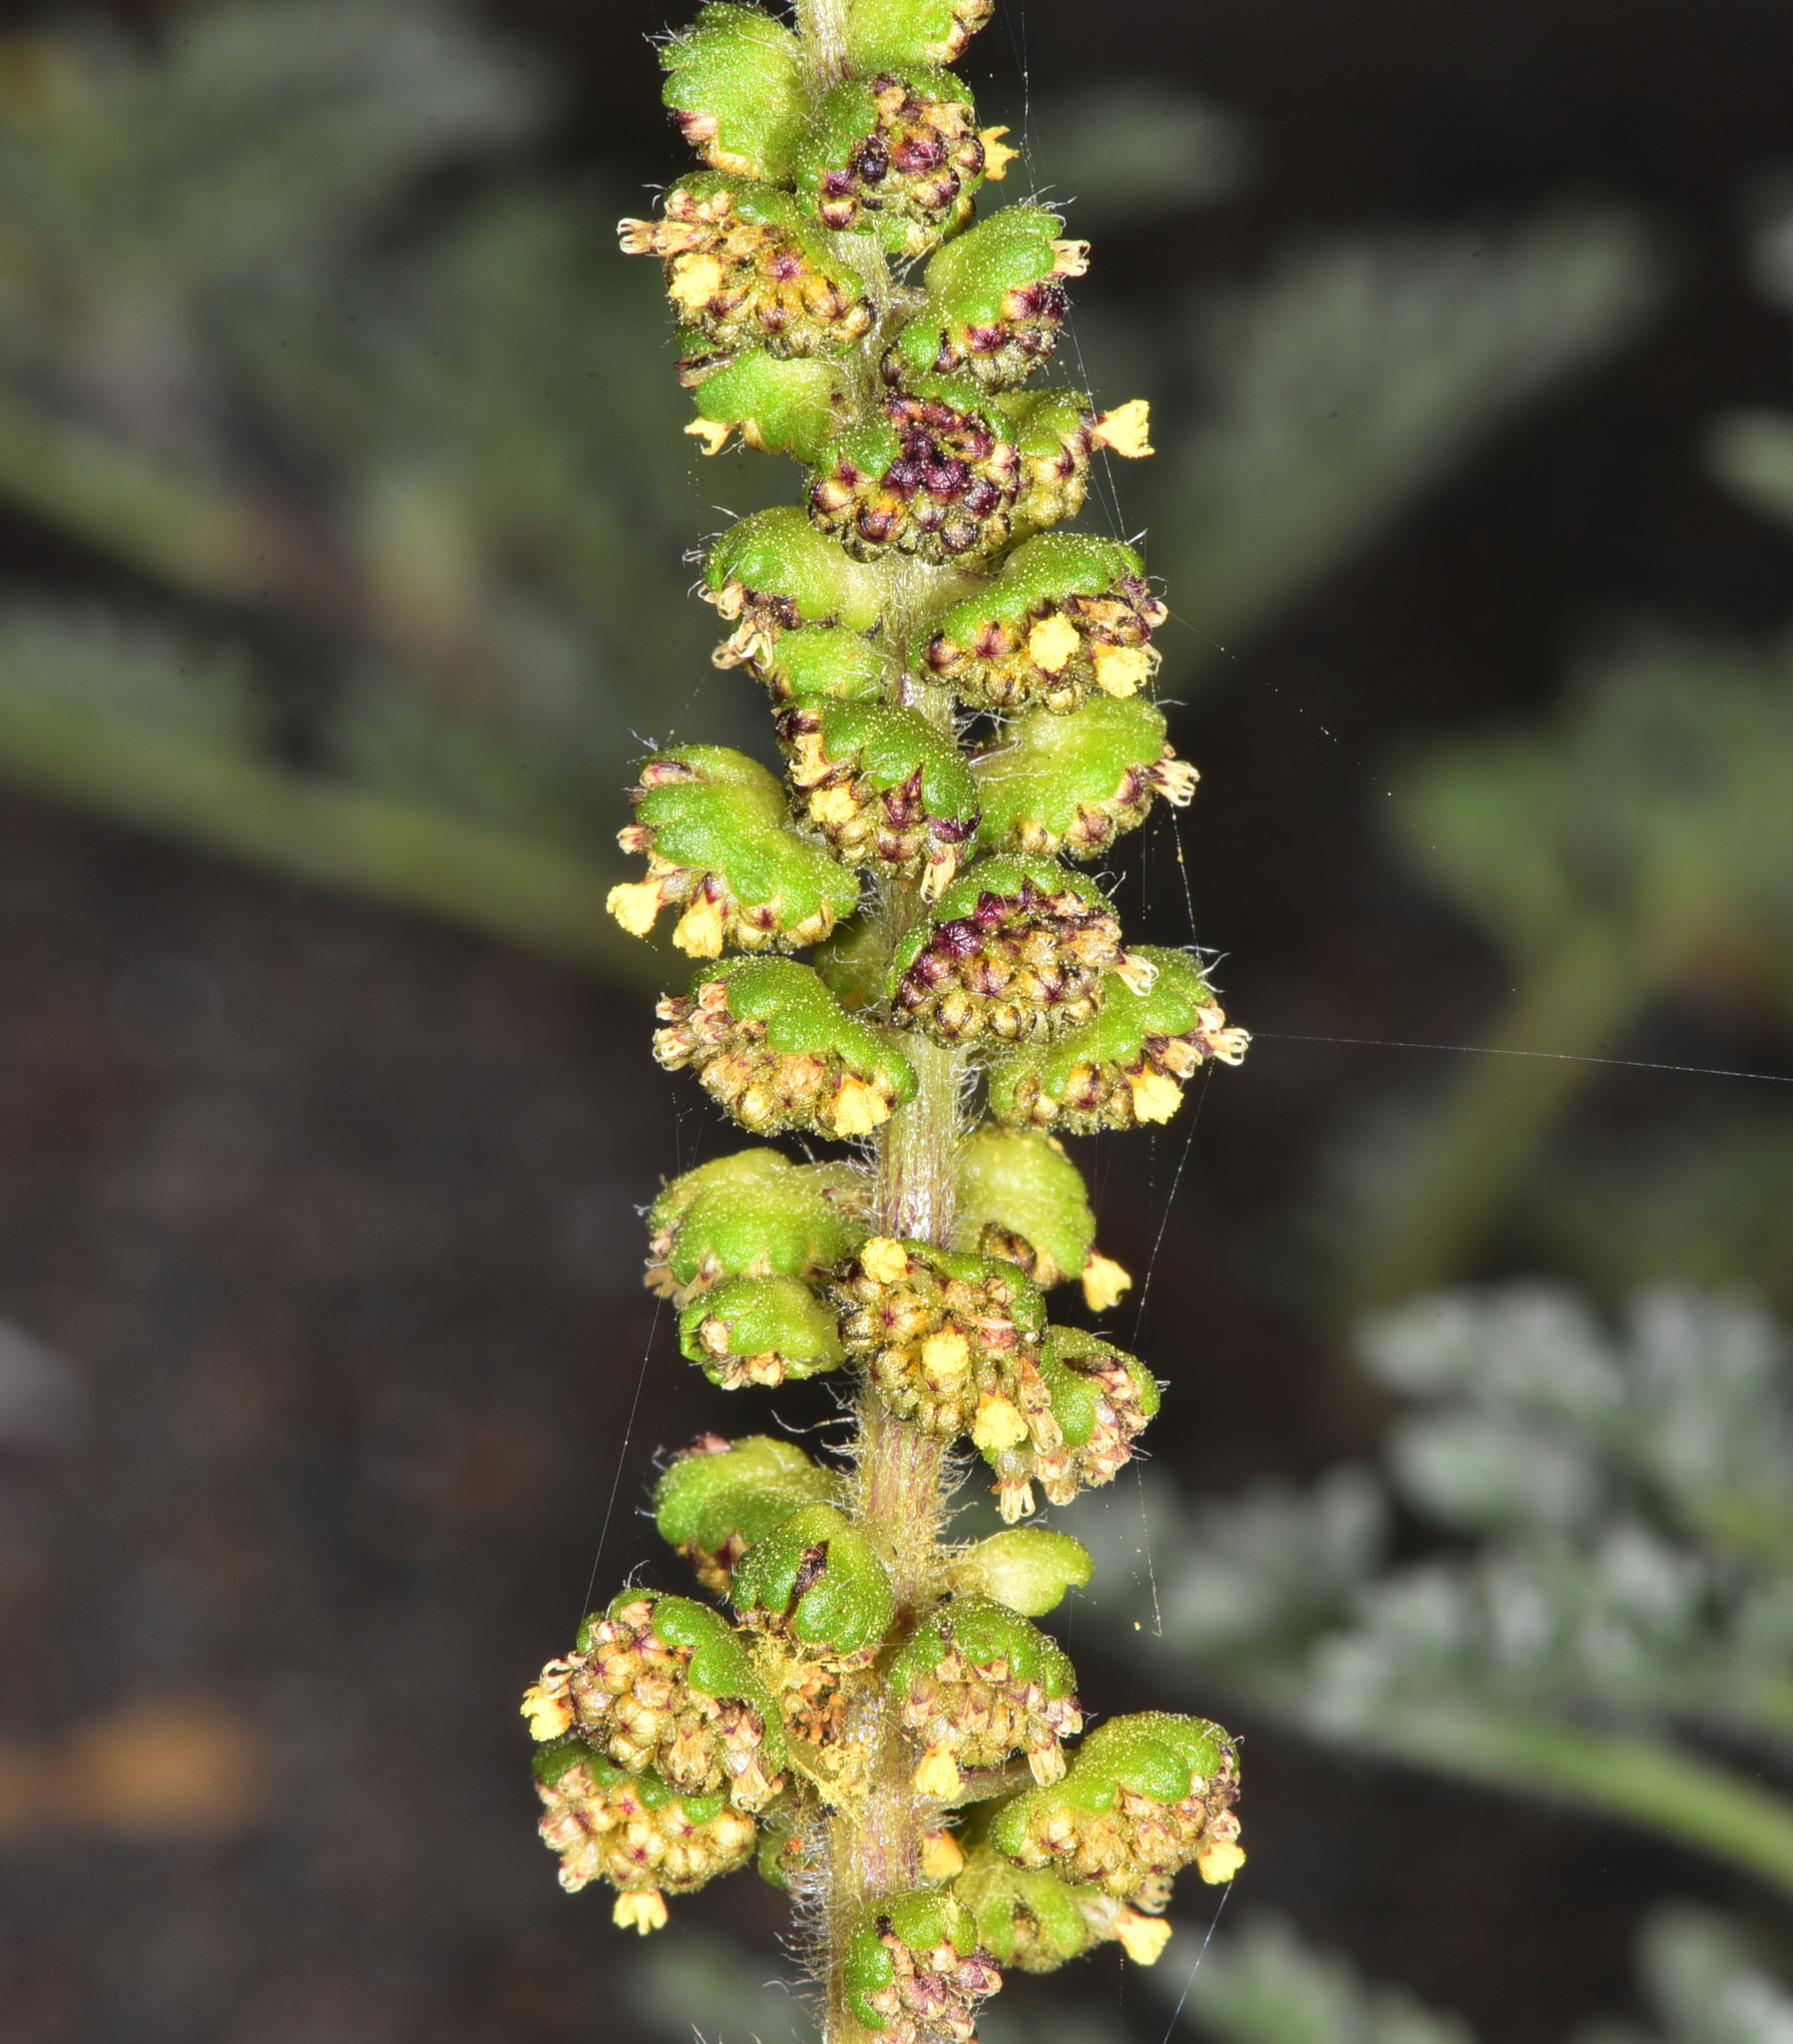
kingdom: Plantae
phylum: Tracheophyta
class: Magnoliopsida
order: Asterales
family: Asteraceae
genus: Ambrosia
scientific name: Ambrosia chamissonis
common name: Beachbur
